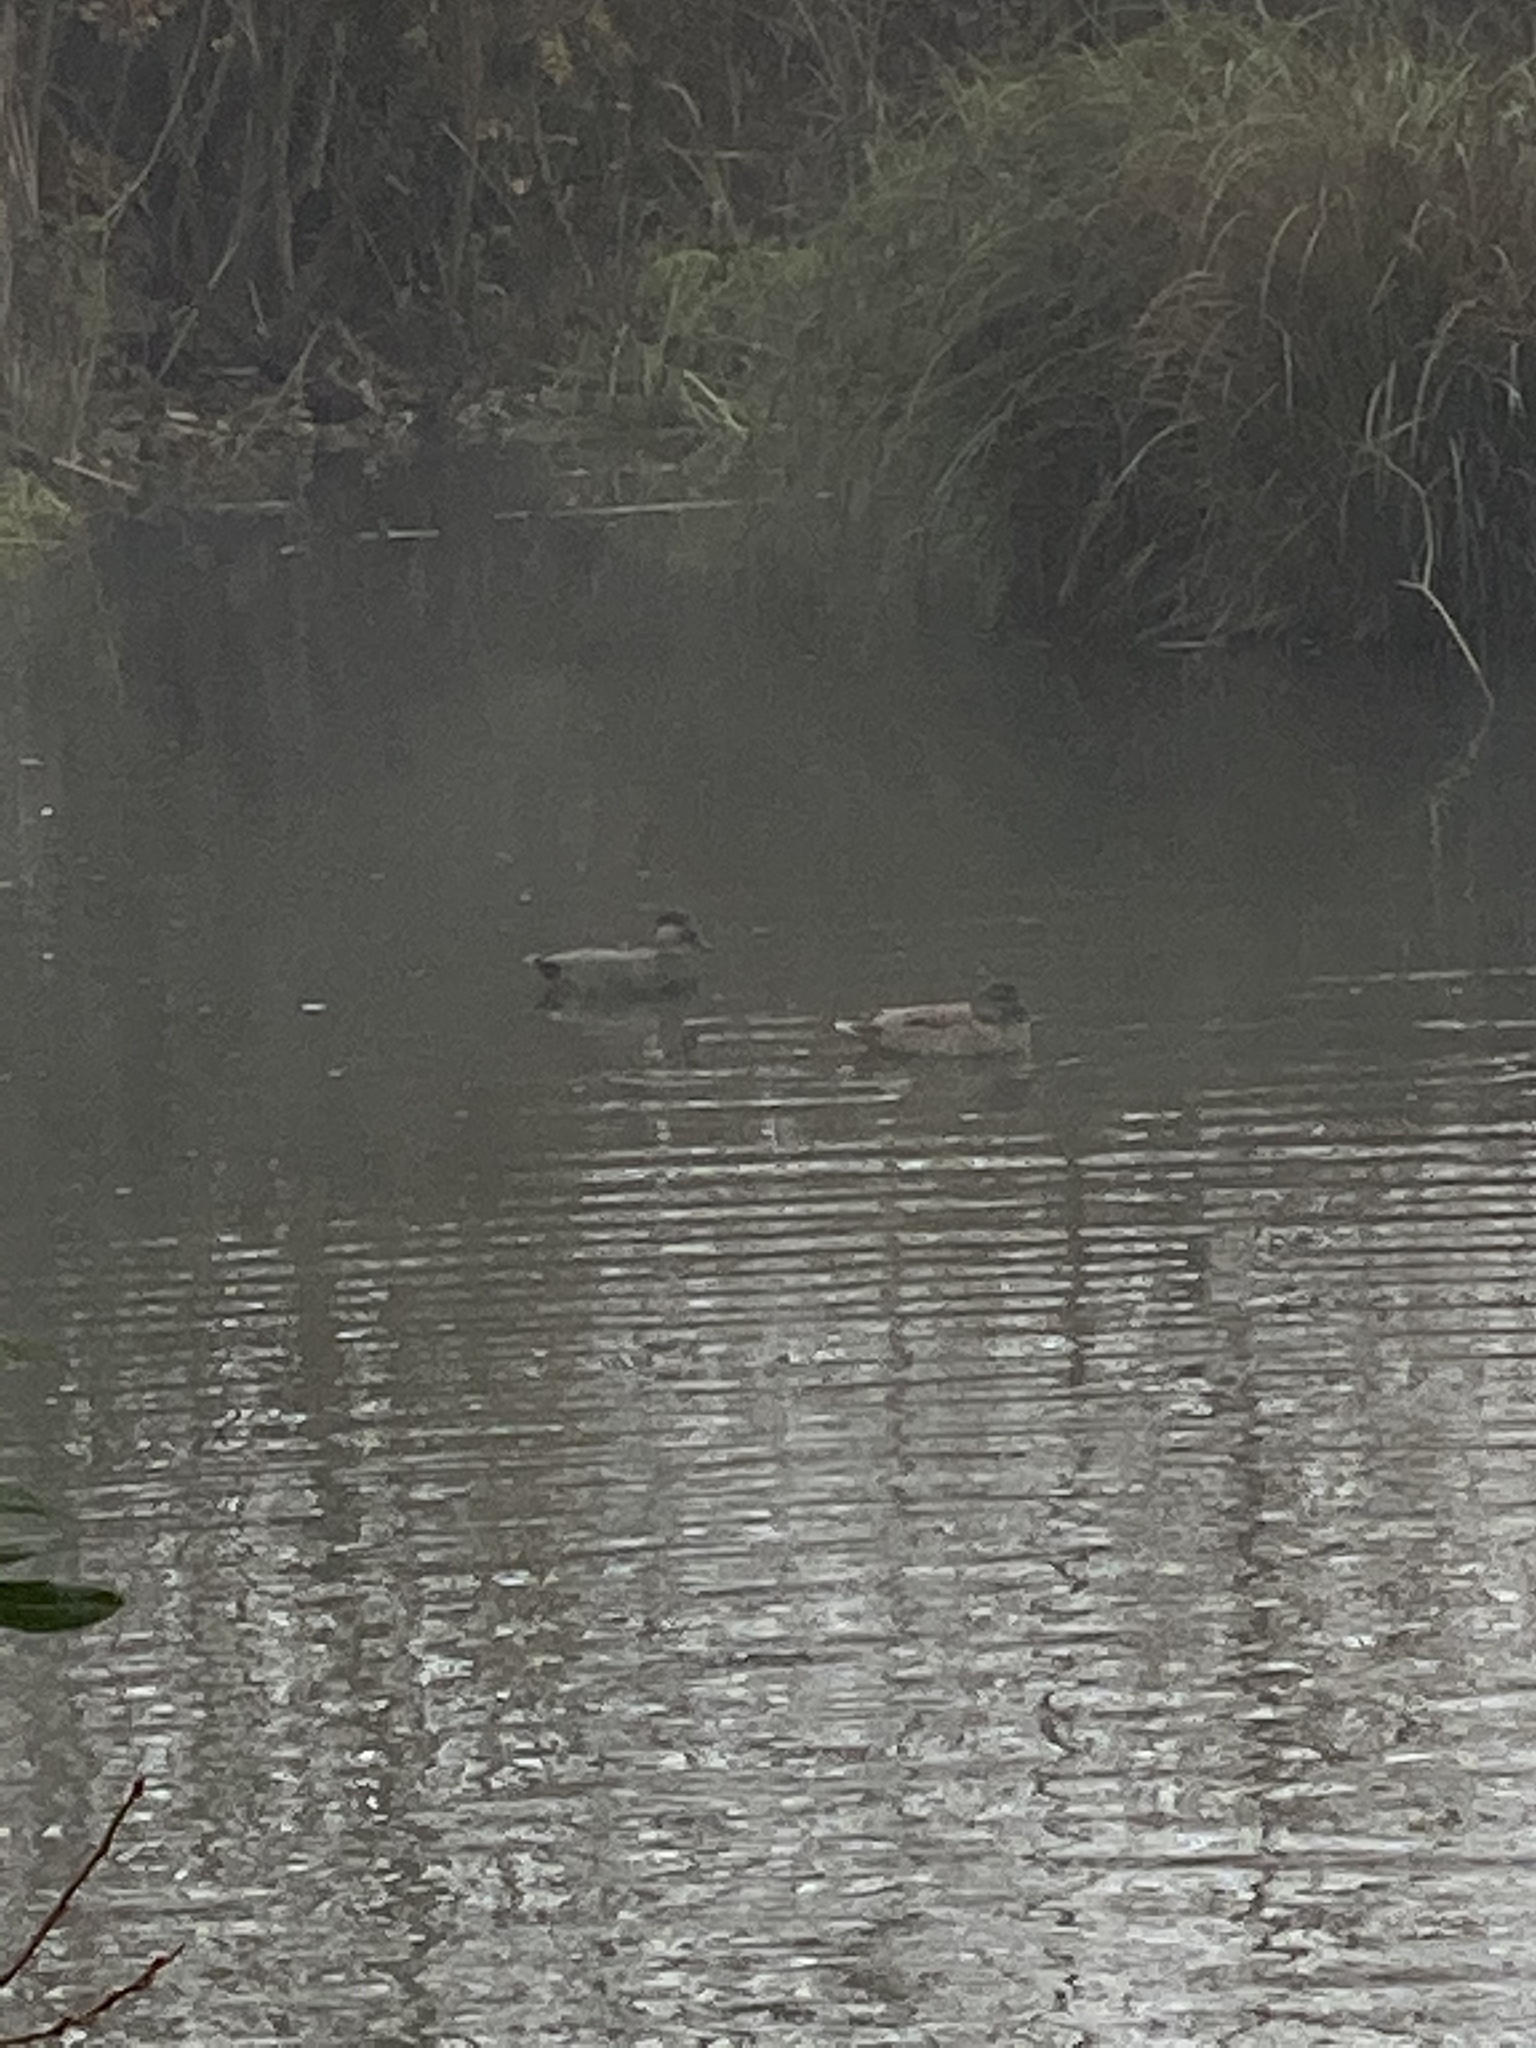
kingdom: Animalia
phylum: Chordata
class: Aves
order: Anseriformes
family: Anatidae
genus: Mareca
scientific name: Mareca strepera
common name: Gadwall
